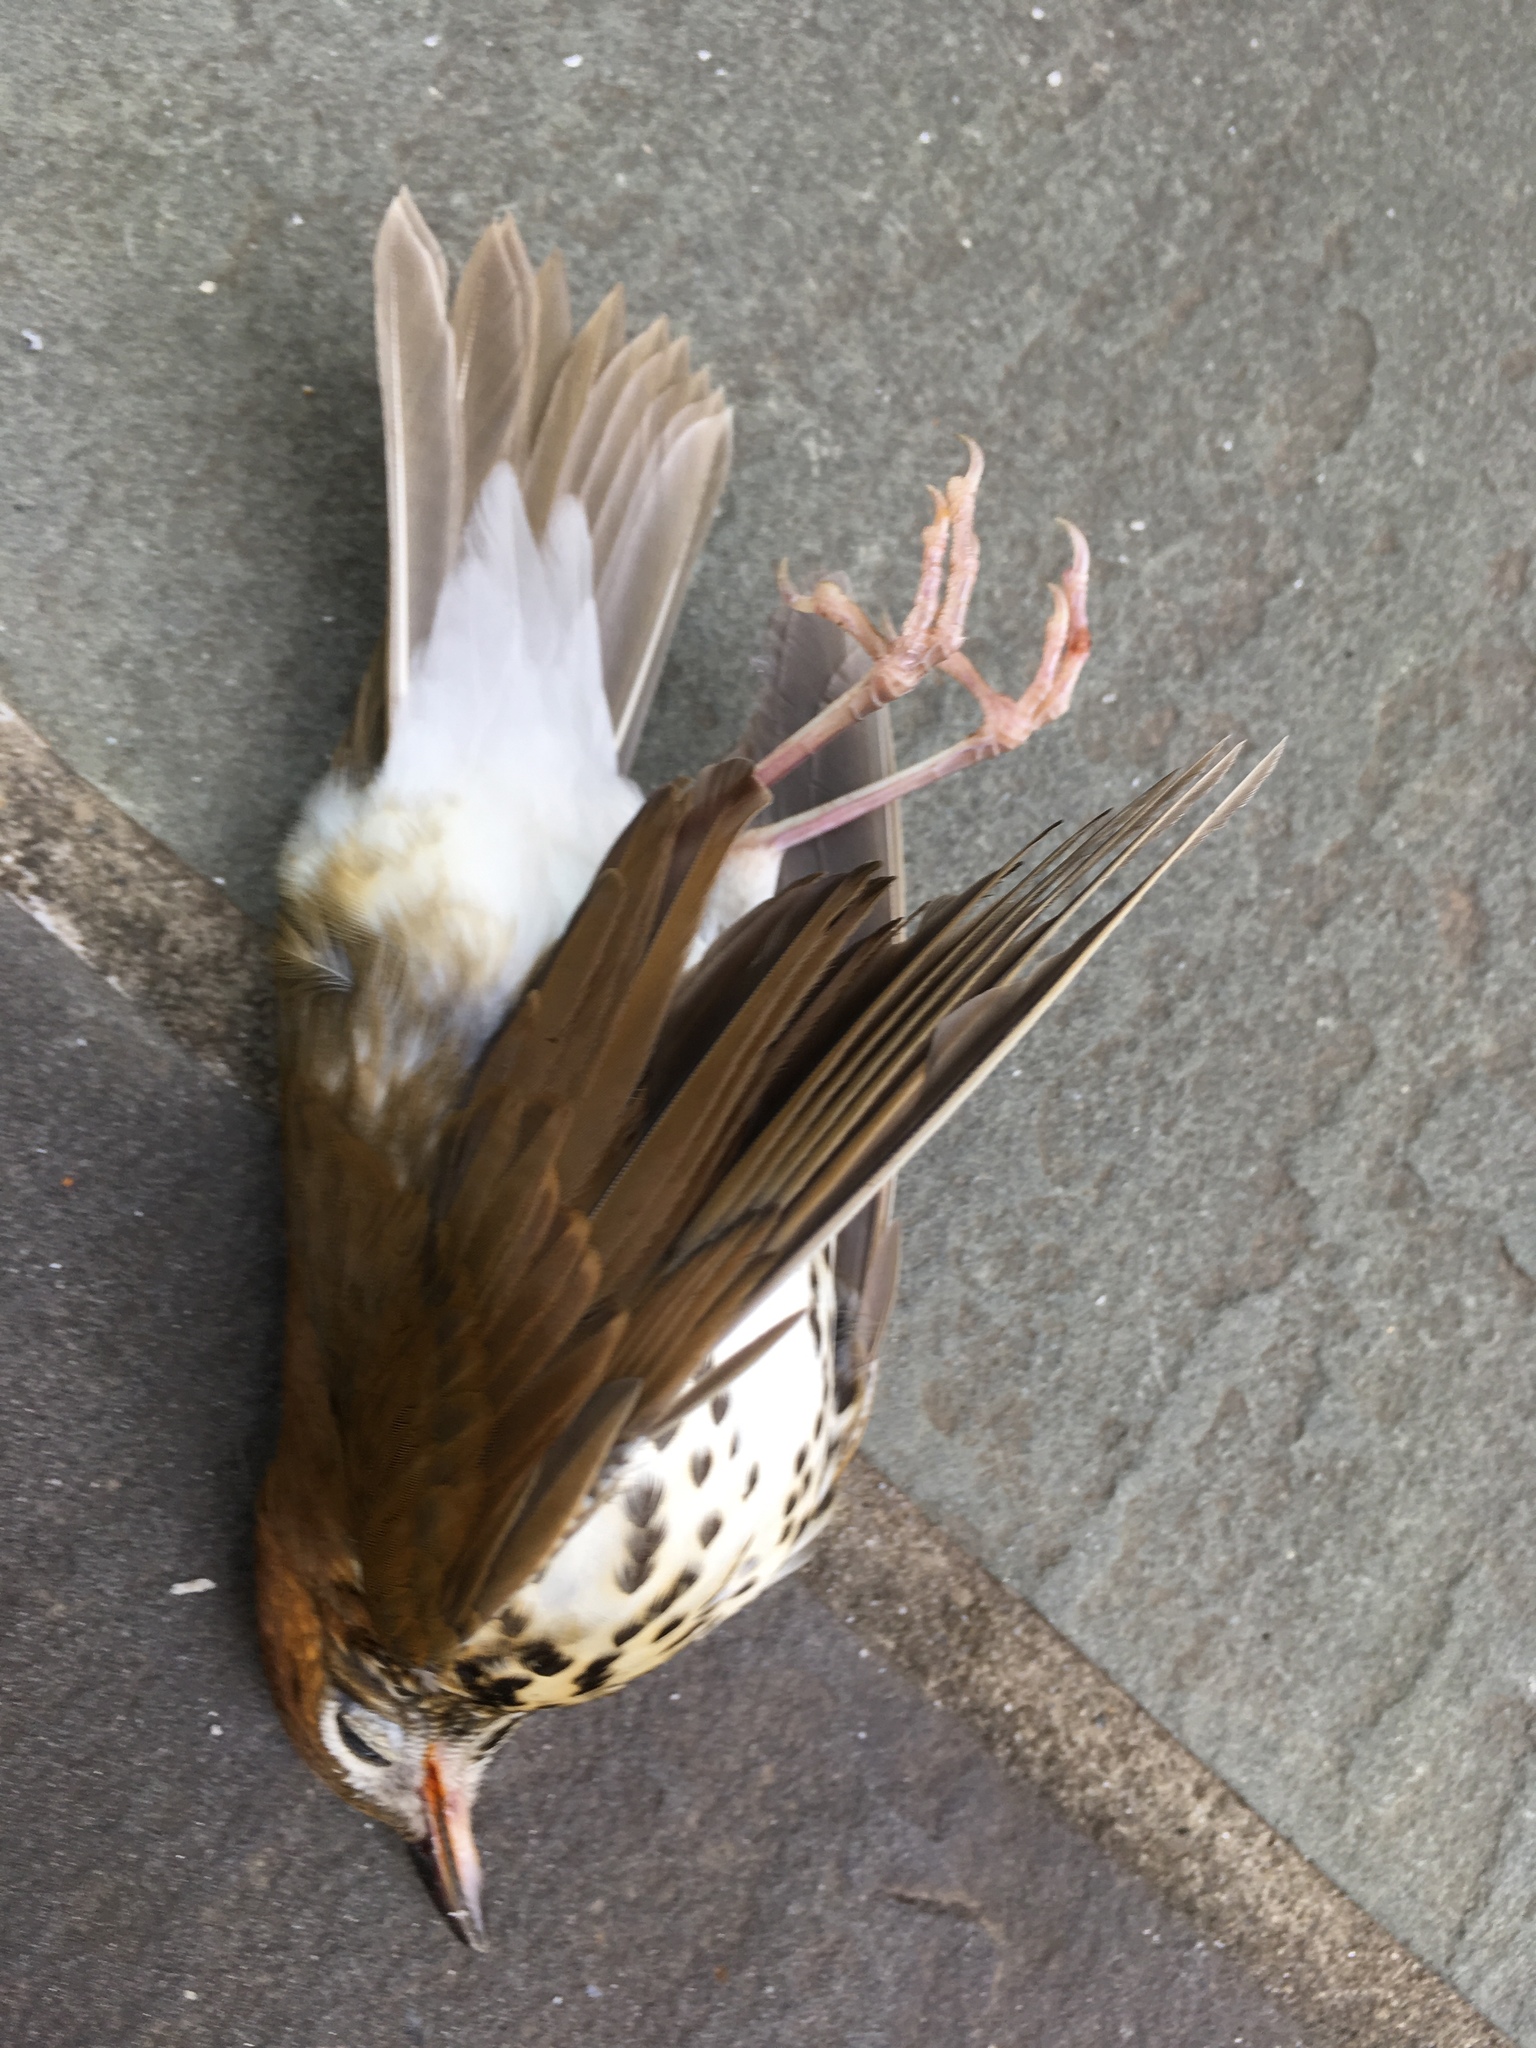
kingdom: Animalia
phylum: Chordata
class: Aves
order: Passeriformes
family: Turdidae
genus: Hylocichla
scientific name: Hylocichla mustelina
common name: Wood thrush
